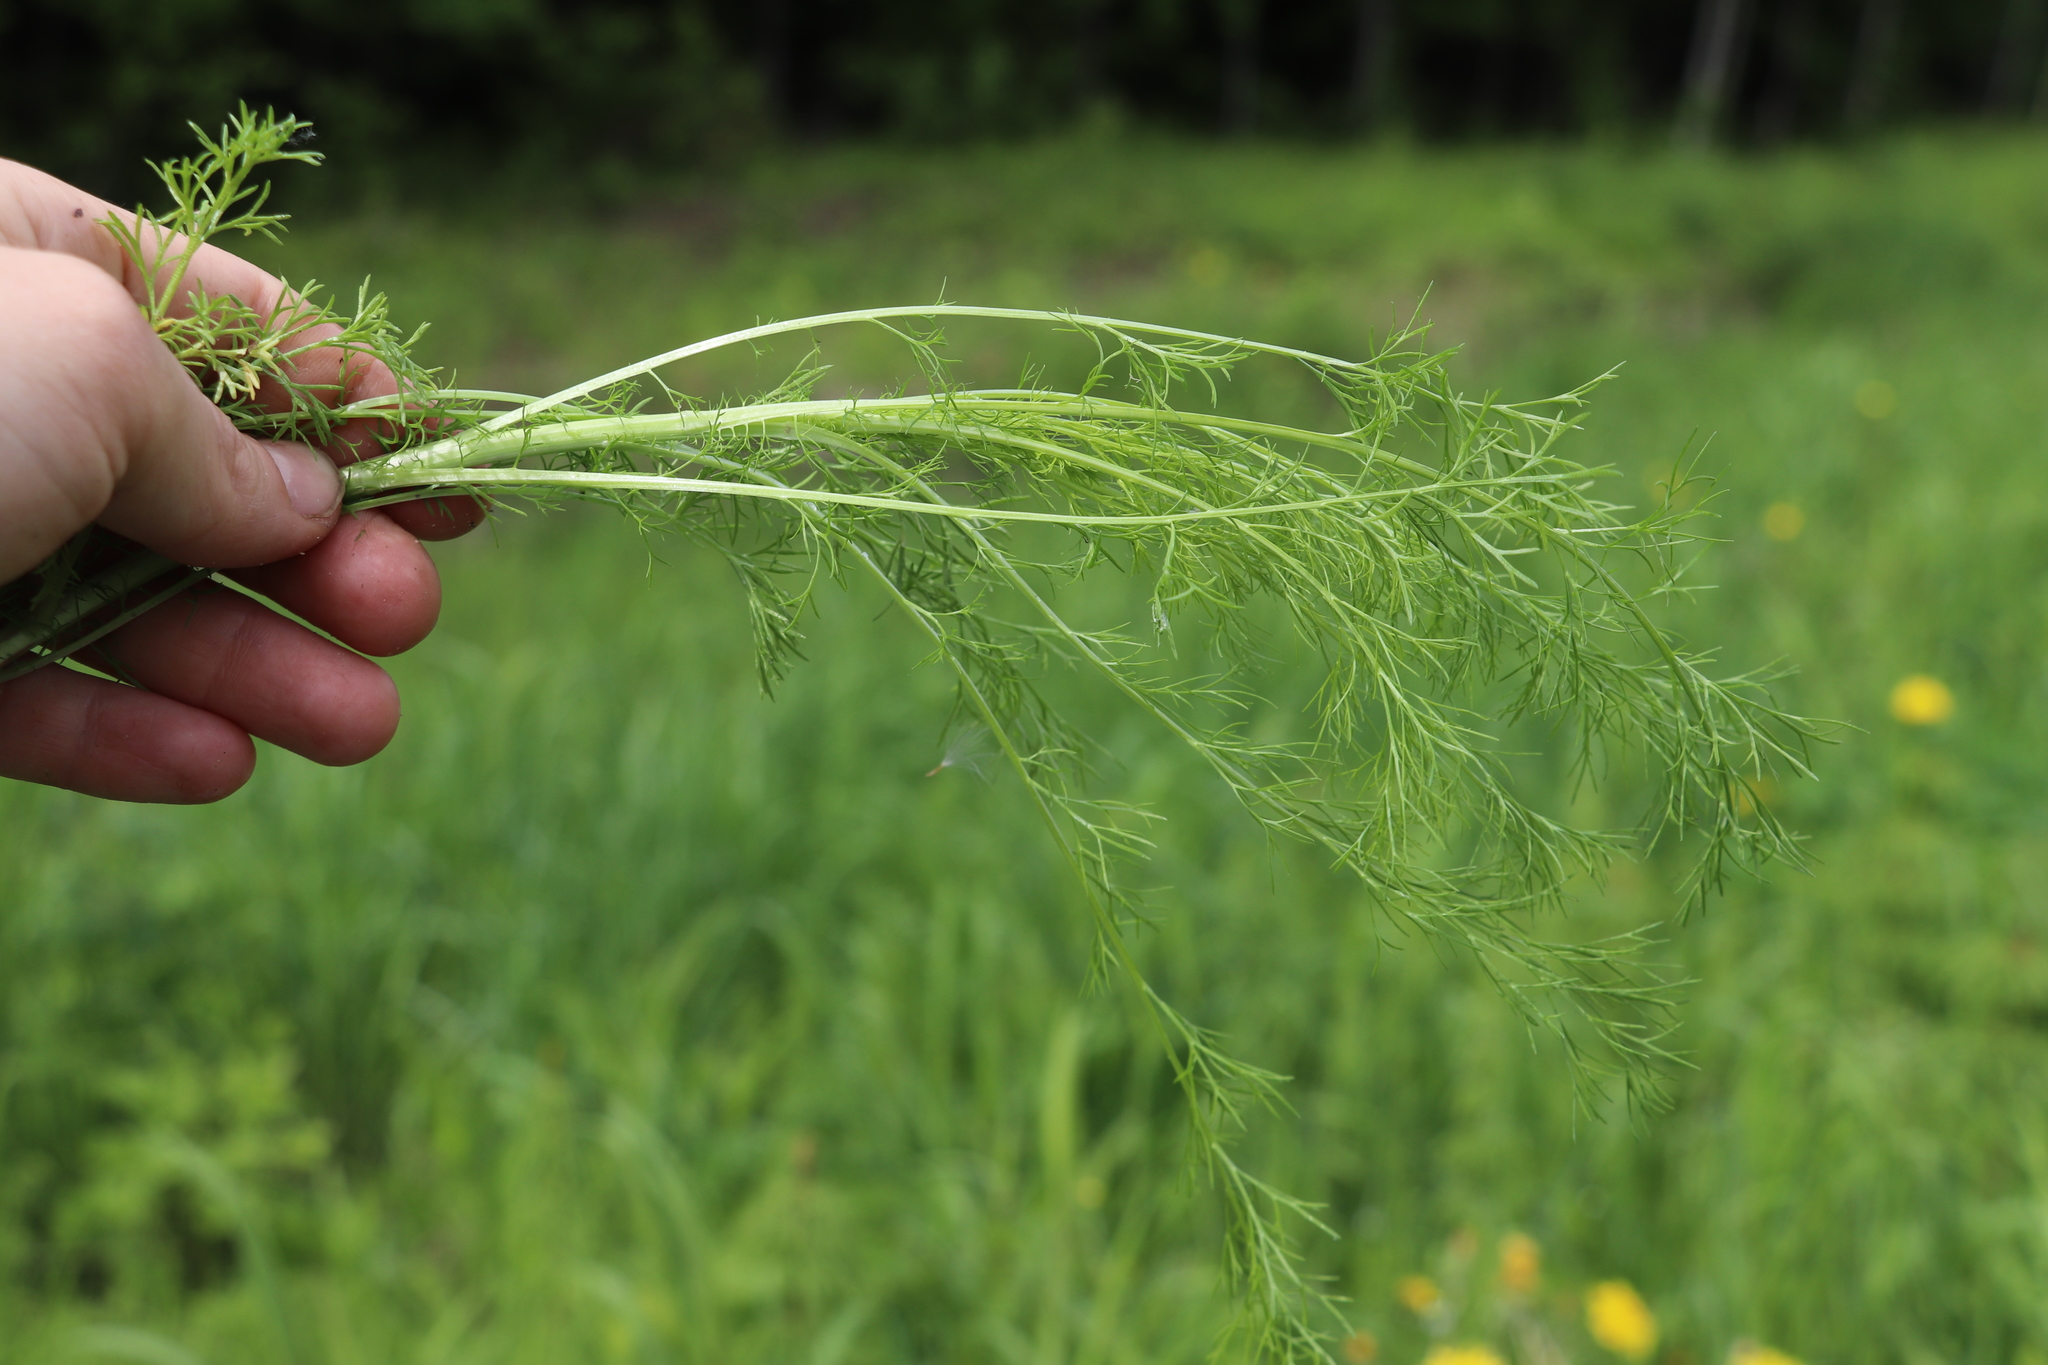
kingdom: Plantae
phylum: Tracheophyta
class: Magnoliopsida
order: Asterales
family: Asteraceae
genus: Tripleurospermum
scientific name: Tripleurospermum inodorum
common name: Scentless mayweed
